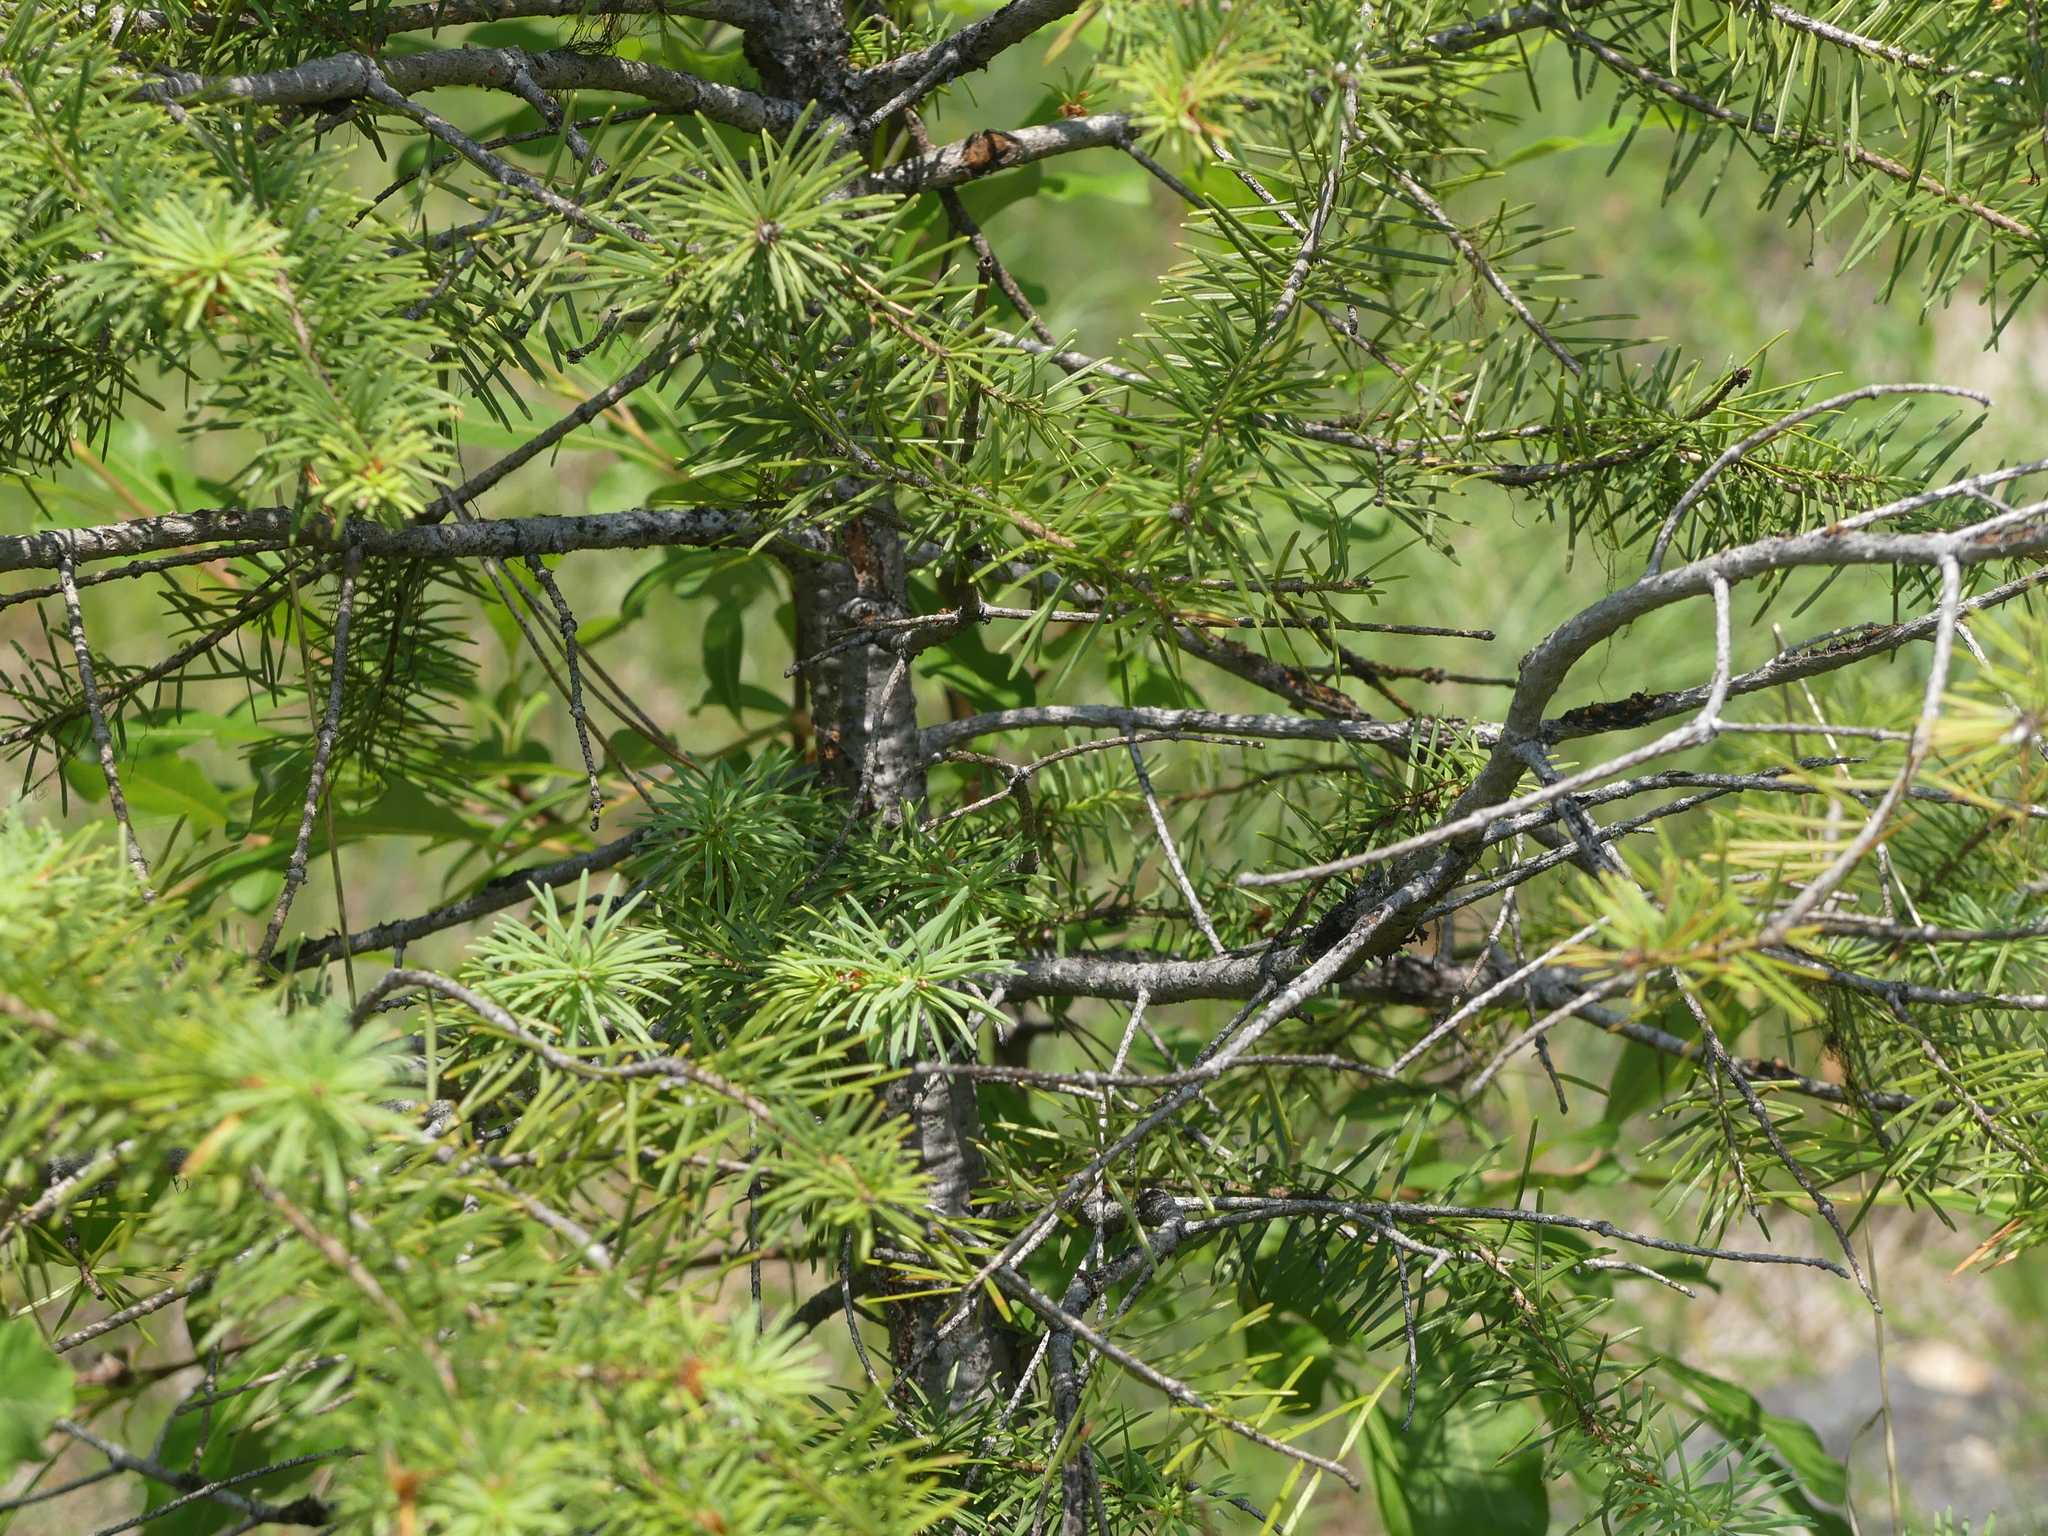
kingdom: Plantae
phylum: Tracheophyta
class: Pinopsida
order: Pinales
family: Pinaceae
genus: Pseudotsuga
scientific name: Pseudotsuga menziesii
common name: Douglas fir
